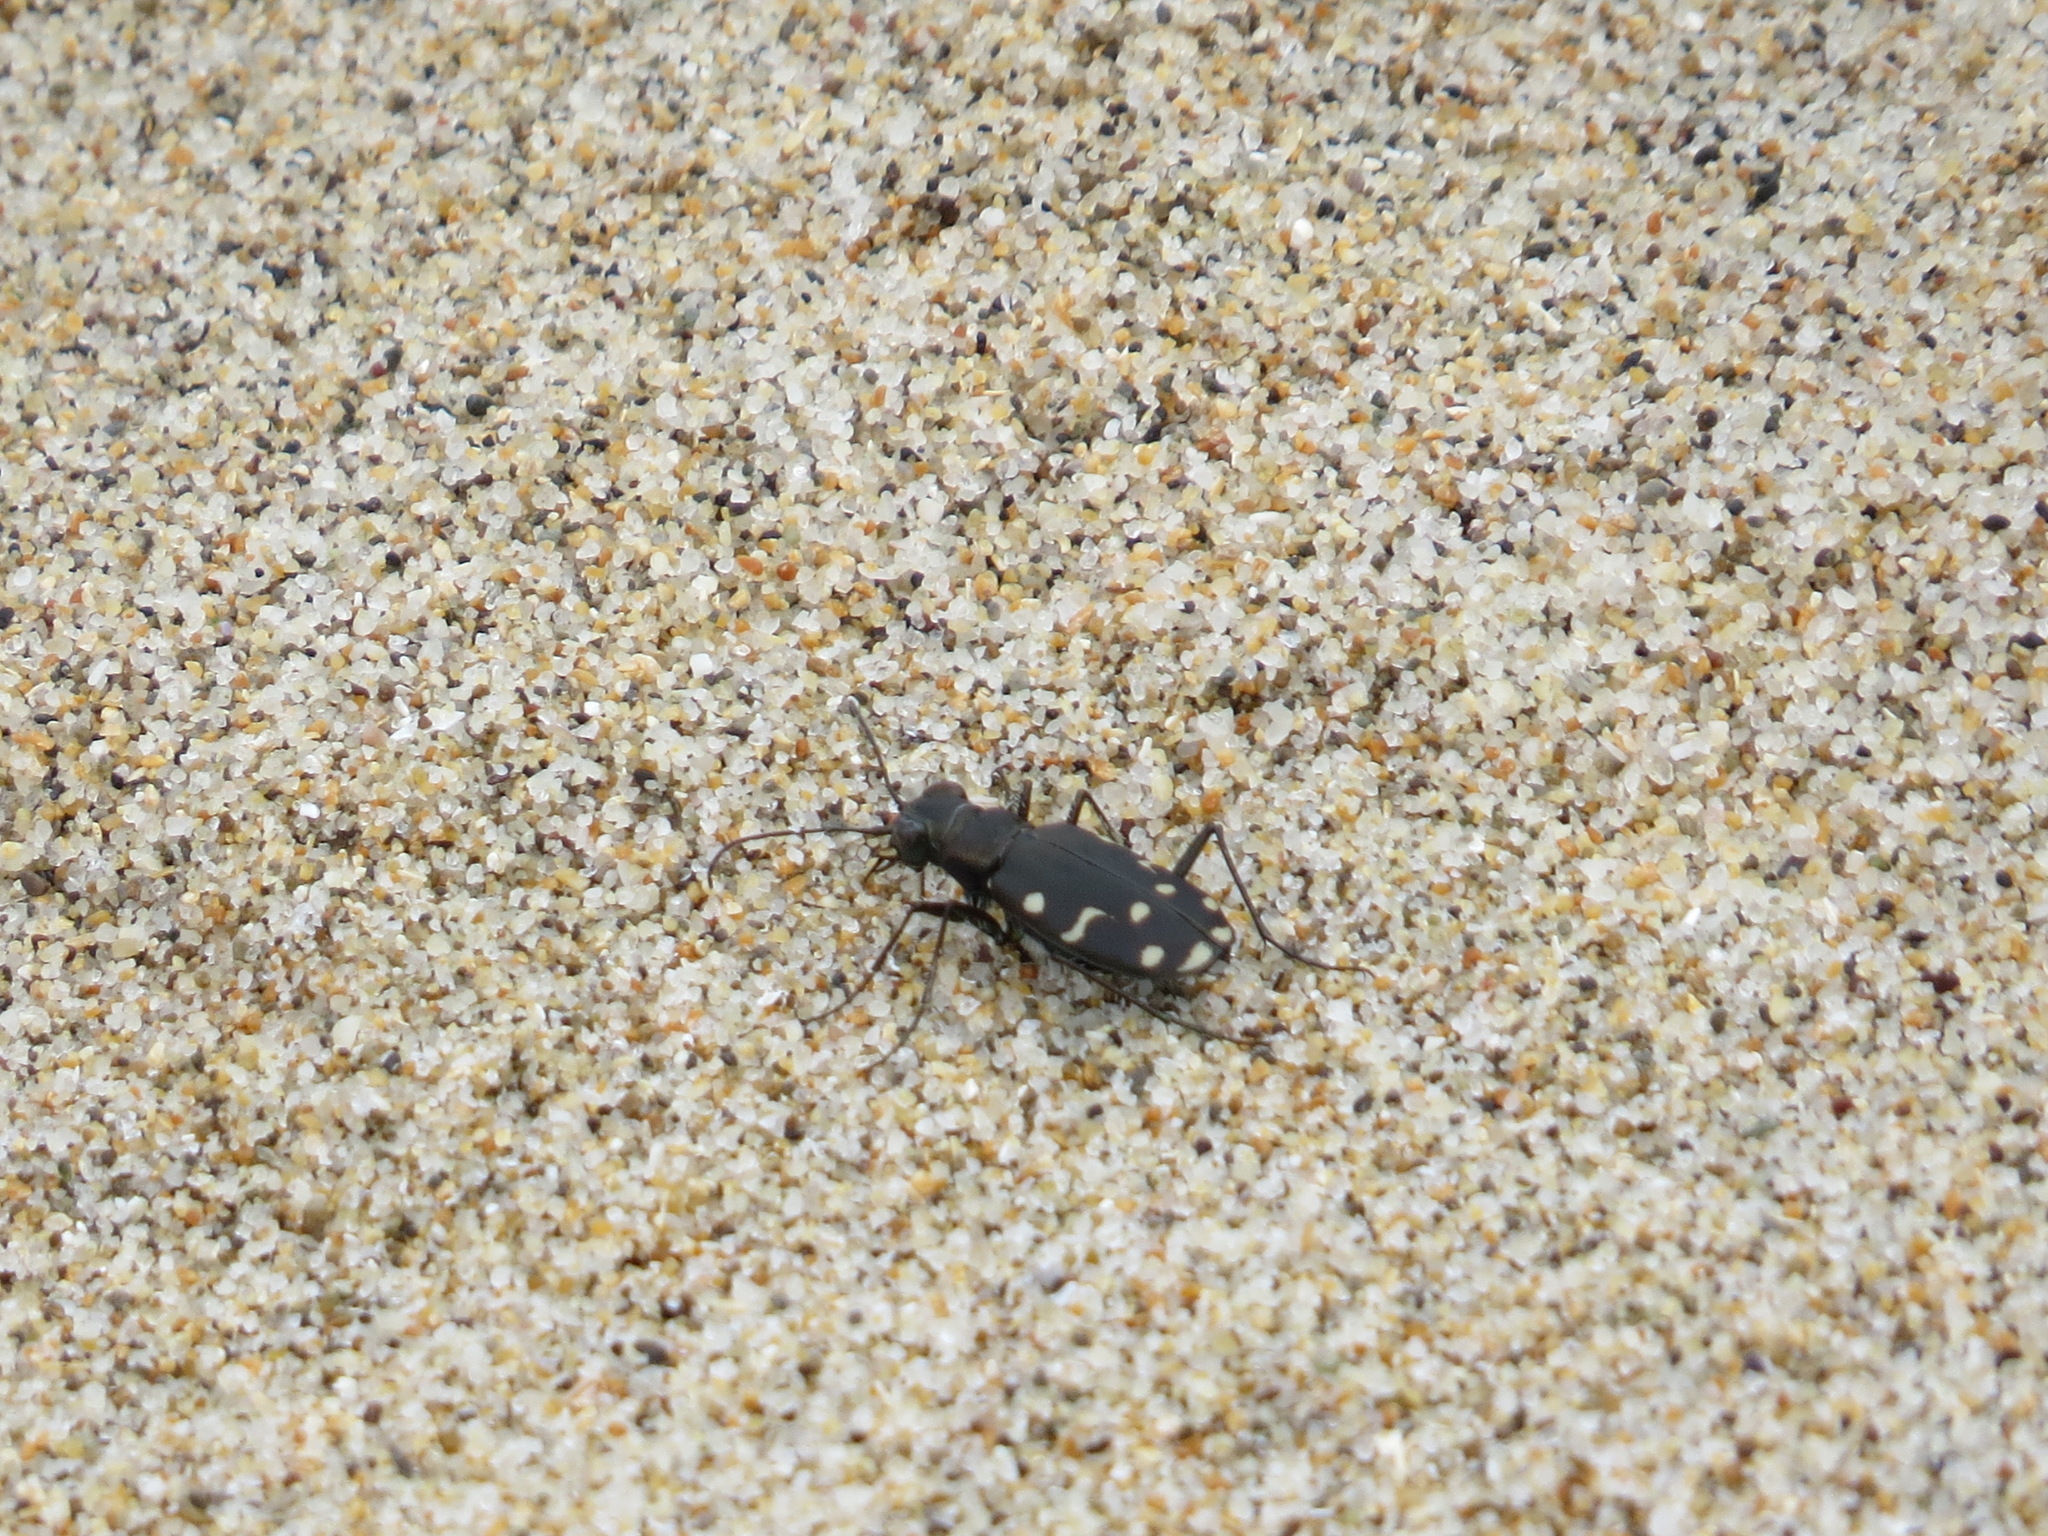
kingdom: Animalia
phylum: Arthropoda
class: Insecta
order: Coleoptera
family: Carabidae
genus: Cicindela
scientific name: Cicindela oregona
